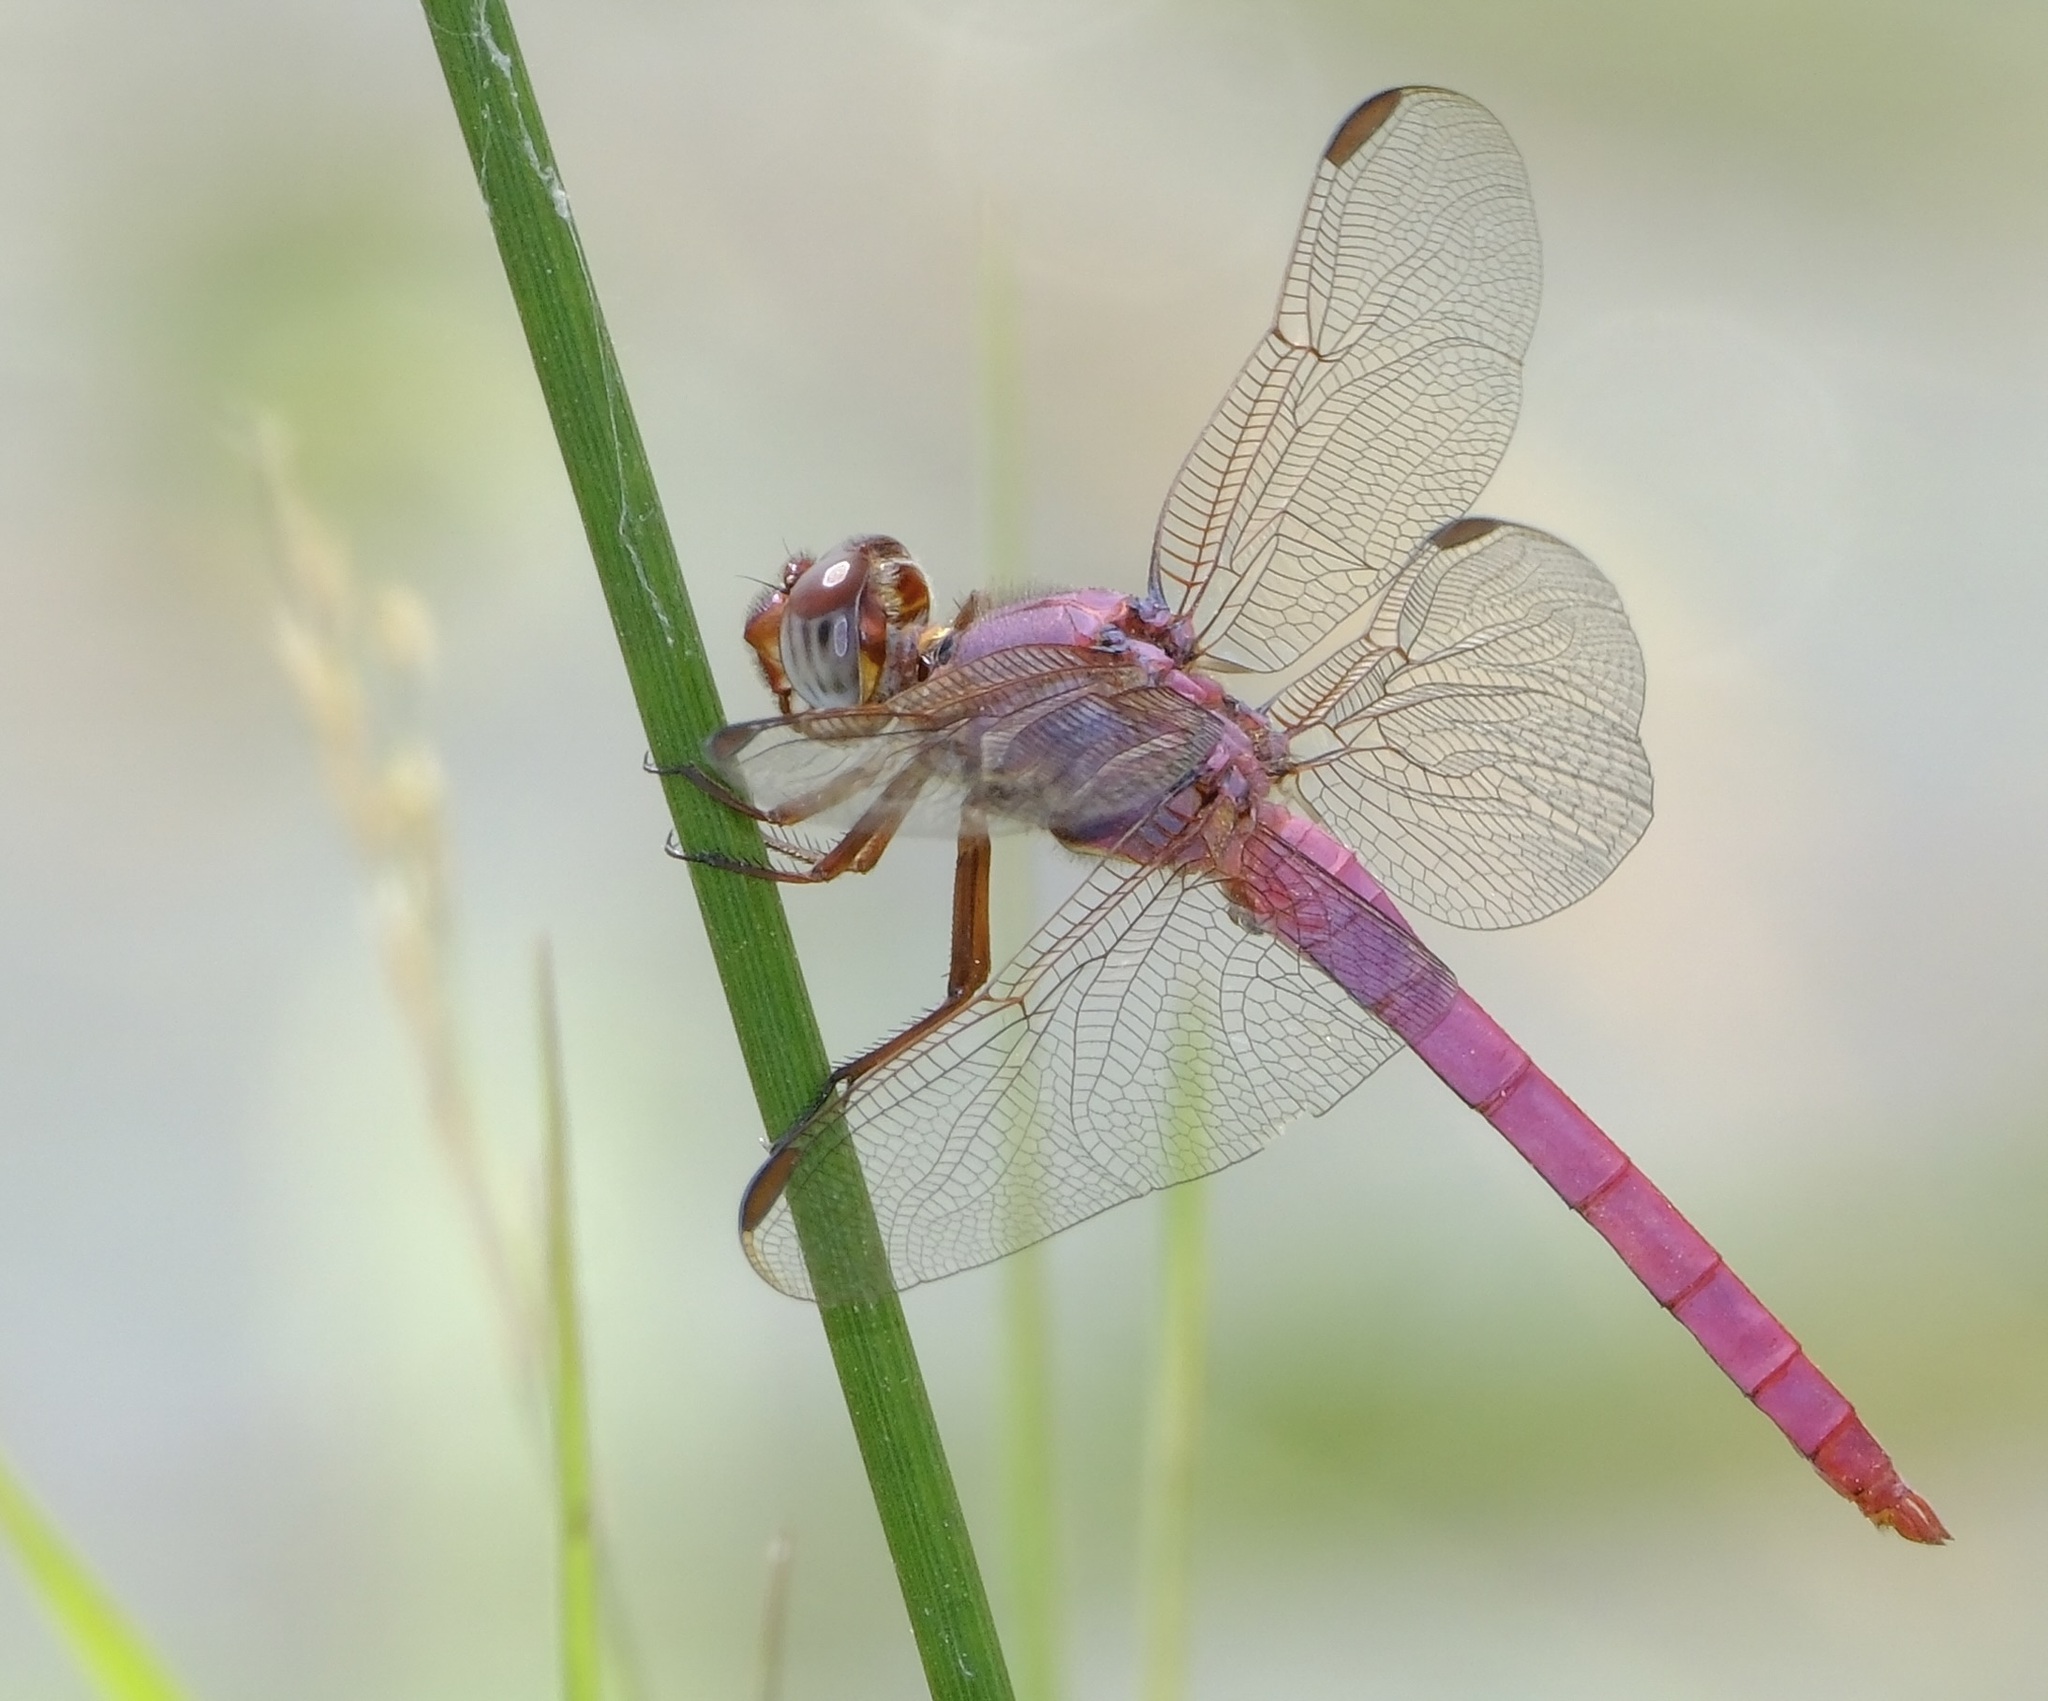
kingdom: Animalia
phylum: Arthropoda
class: Insecta
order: Odonata
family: Libellulidae
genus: Orthemis
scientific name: Orthemis ferruginea
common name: Roseate skimmer
